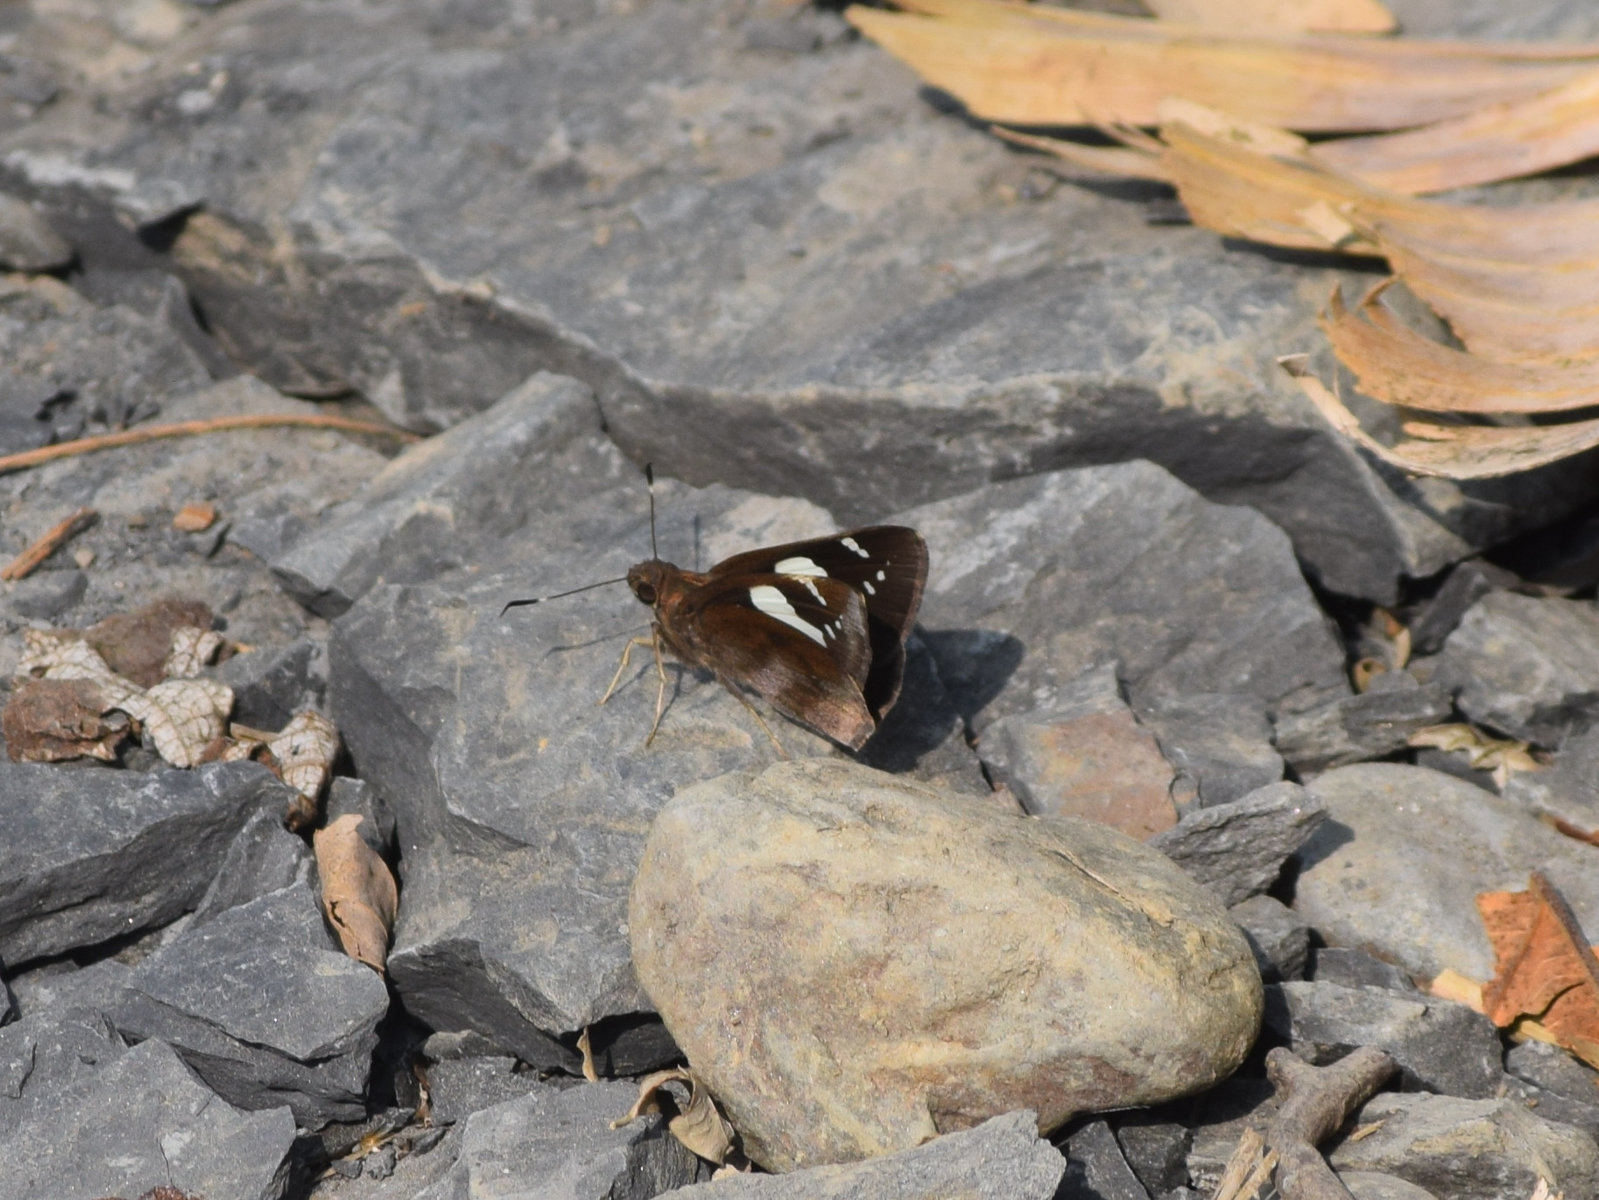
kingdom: Animalia
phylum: Arthropoda
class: Insecta
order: Lepidoptera
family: Hesperiidae
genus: Notocrypta
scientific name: Notocrypta curvifascia
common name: Restricted demon
